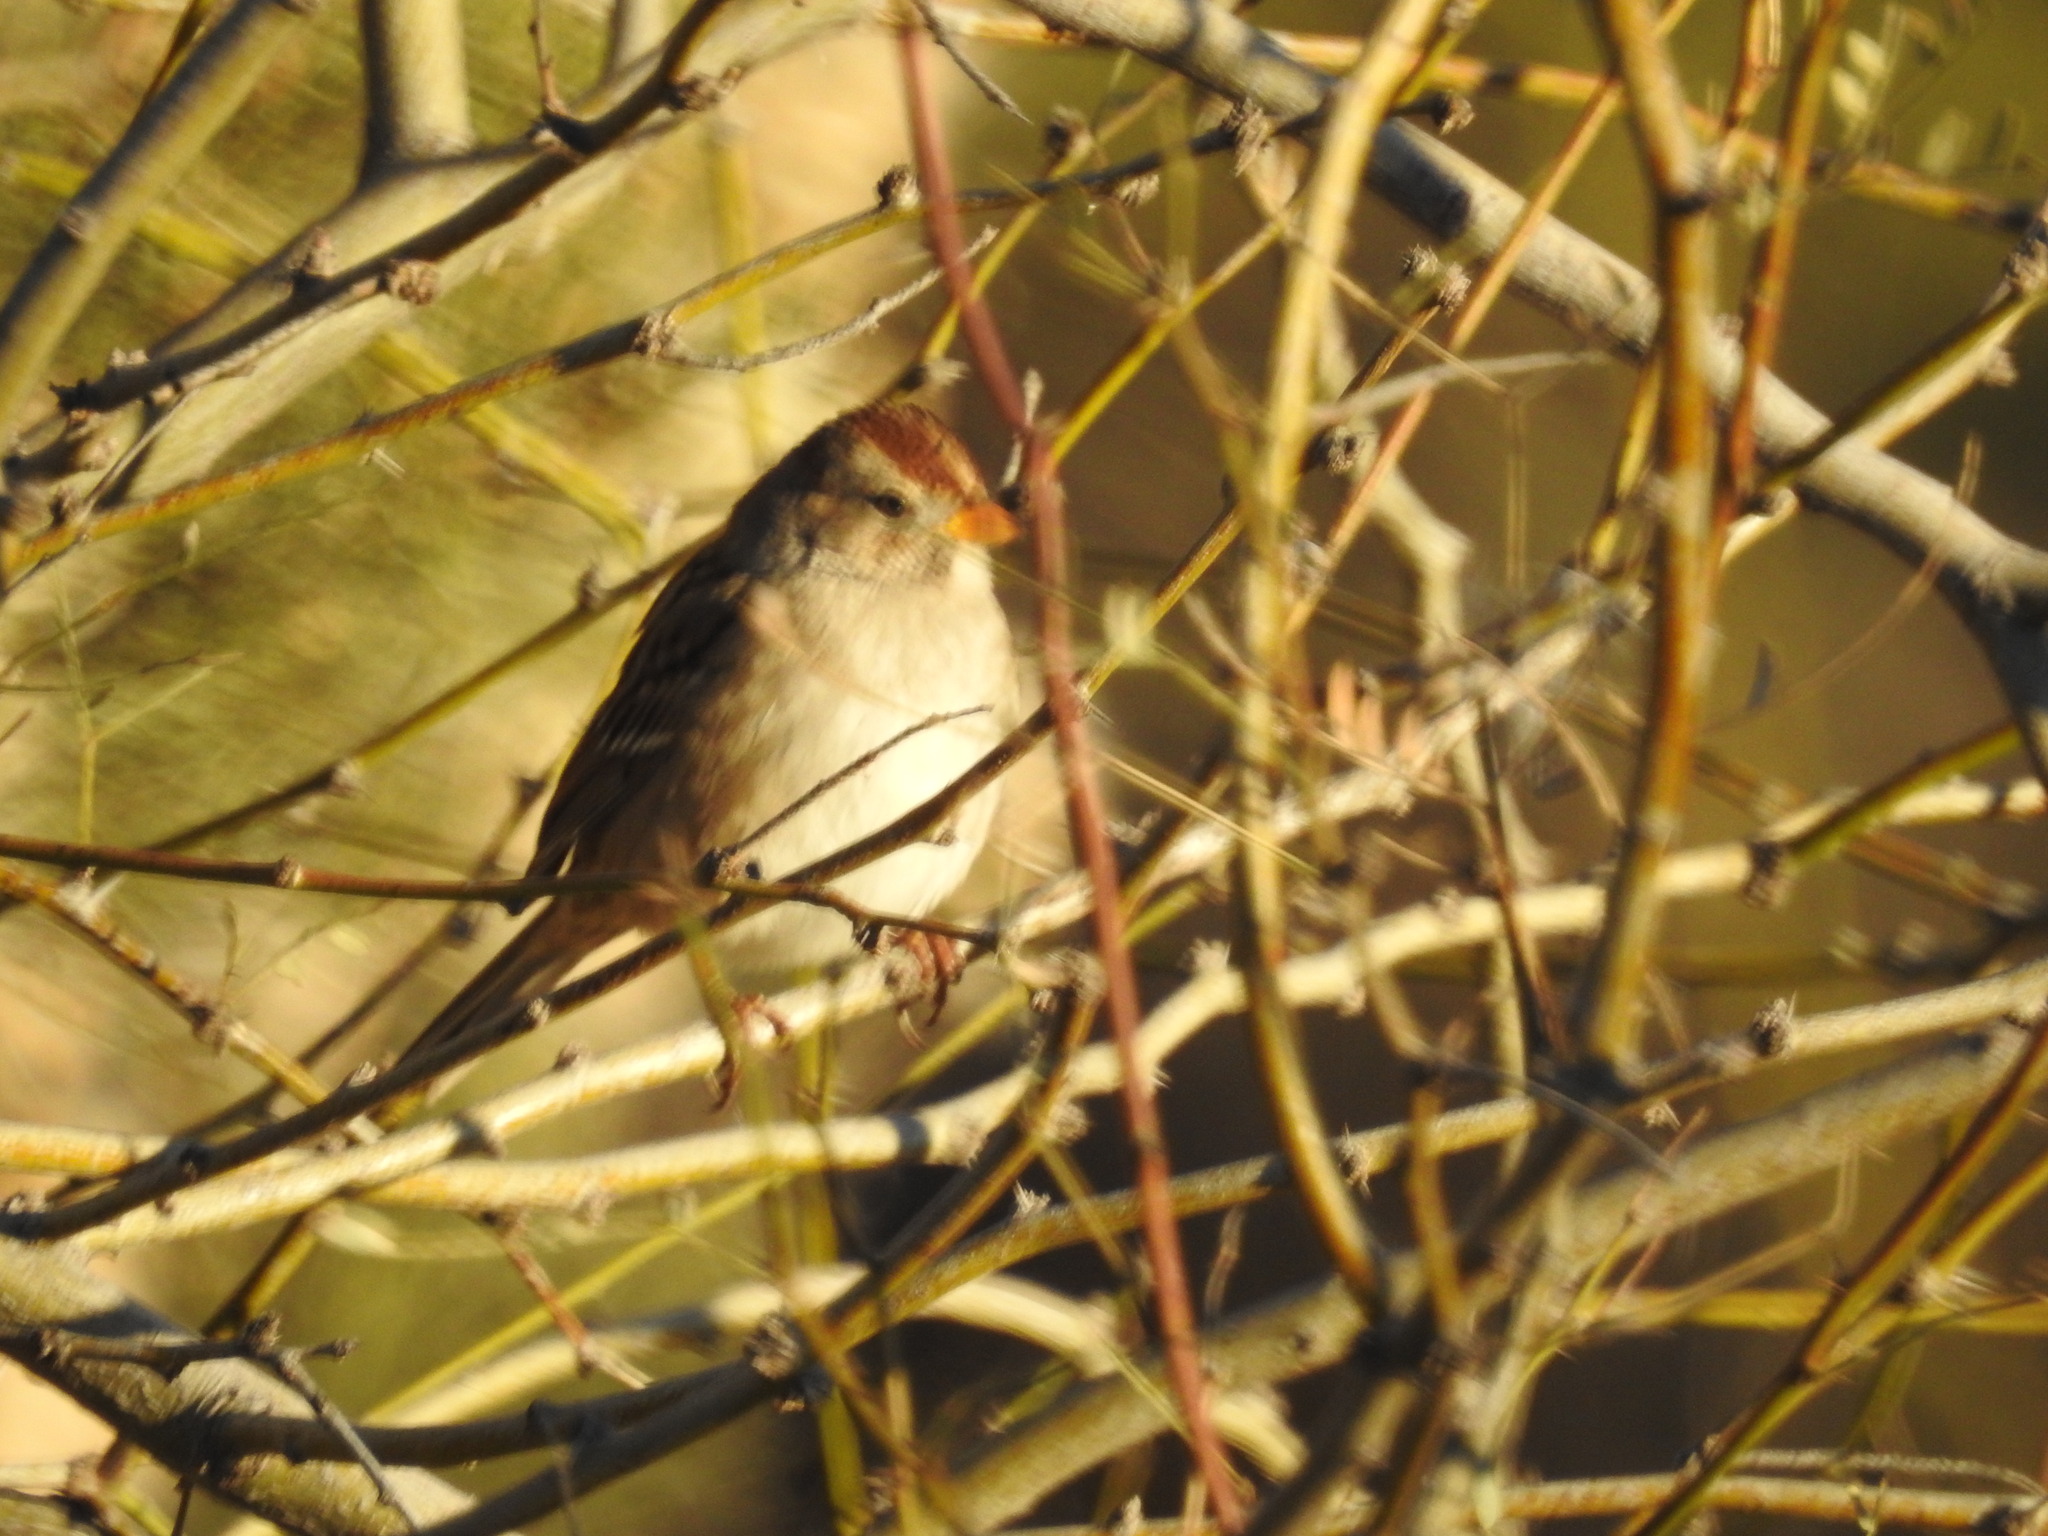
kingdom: Animalia
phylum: Chordata
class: Aves
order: Passeriformes
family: Passerellidae
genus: Zonotrichia
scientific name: Zonotrichia leucophrys
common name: White-crowned sparrow
